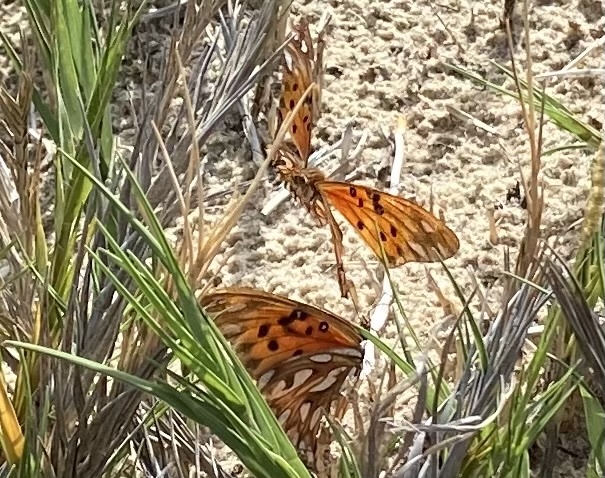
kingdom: Animalia
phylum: Arthropoda
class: Insecta
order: Lepidoptera
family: Nymphalidae
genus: Dione
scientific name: Dione vanillae
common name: Gulf fritillary
